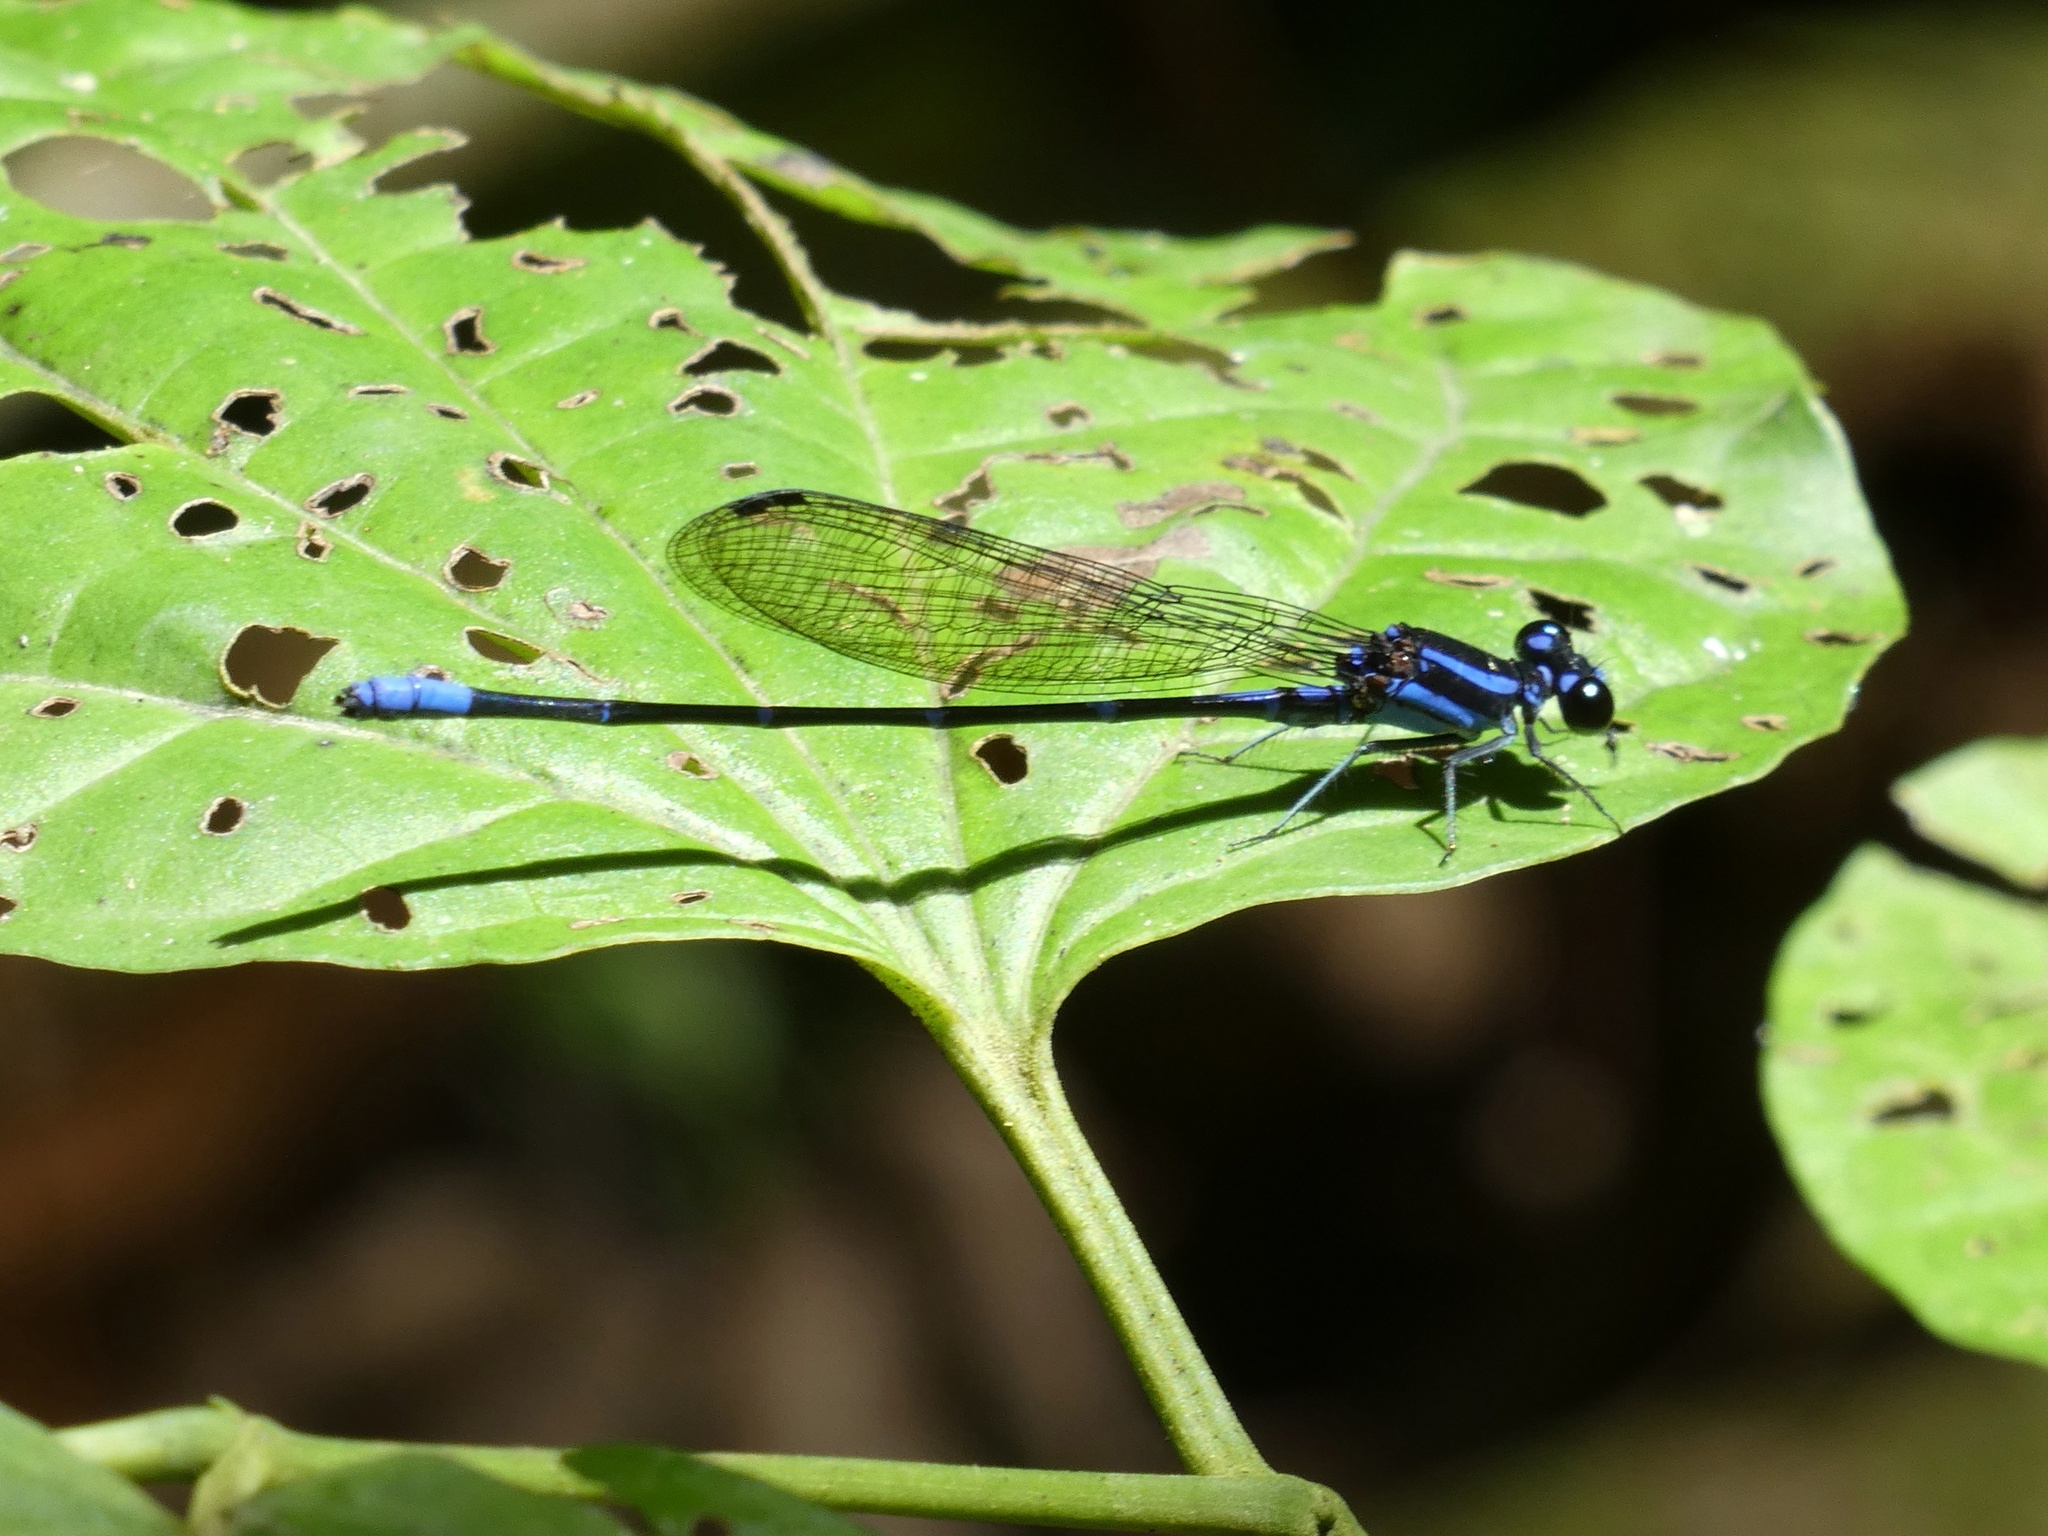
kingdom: Animalia
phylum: Arthropoda
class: Insecta
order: Odonata
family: Coenagrionidae
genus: Argia
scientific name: Argia oculata
